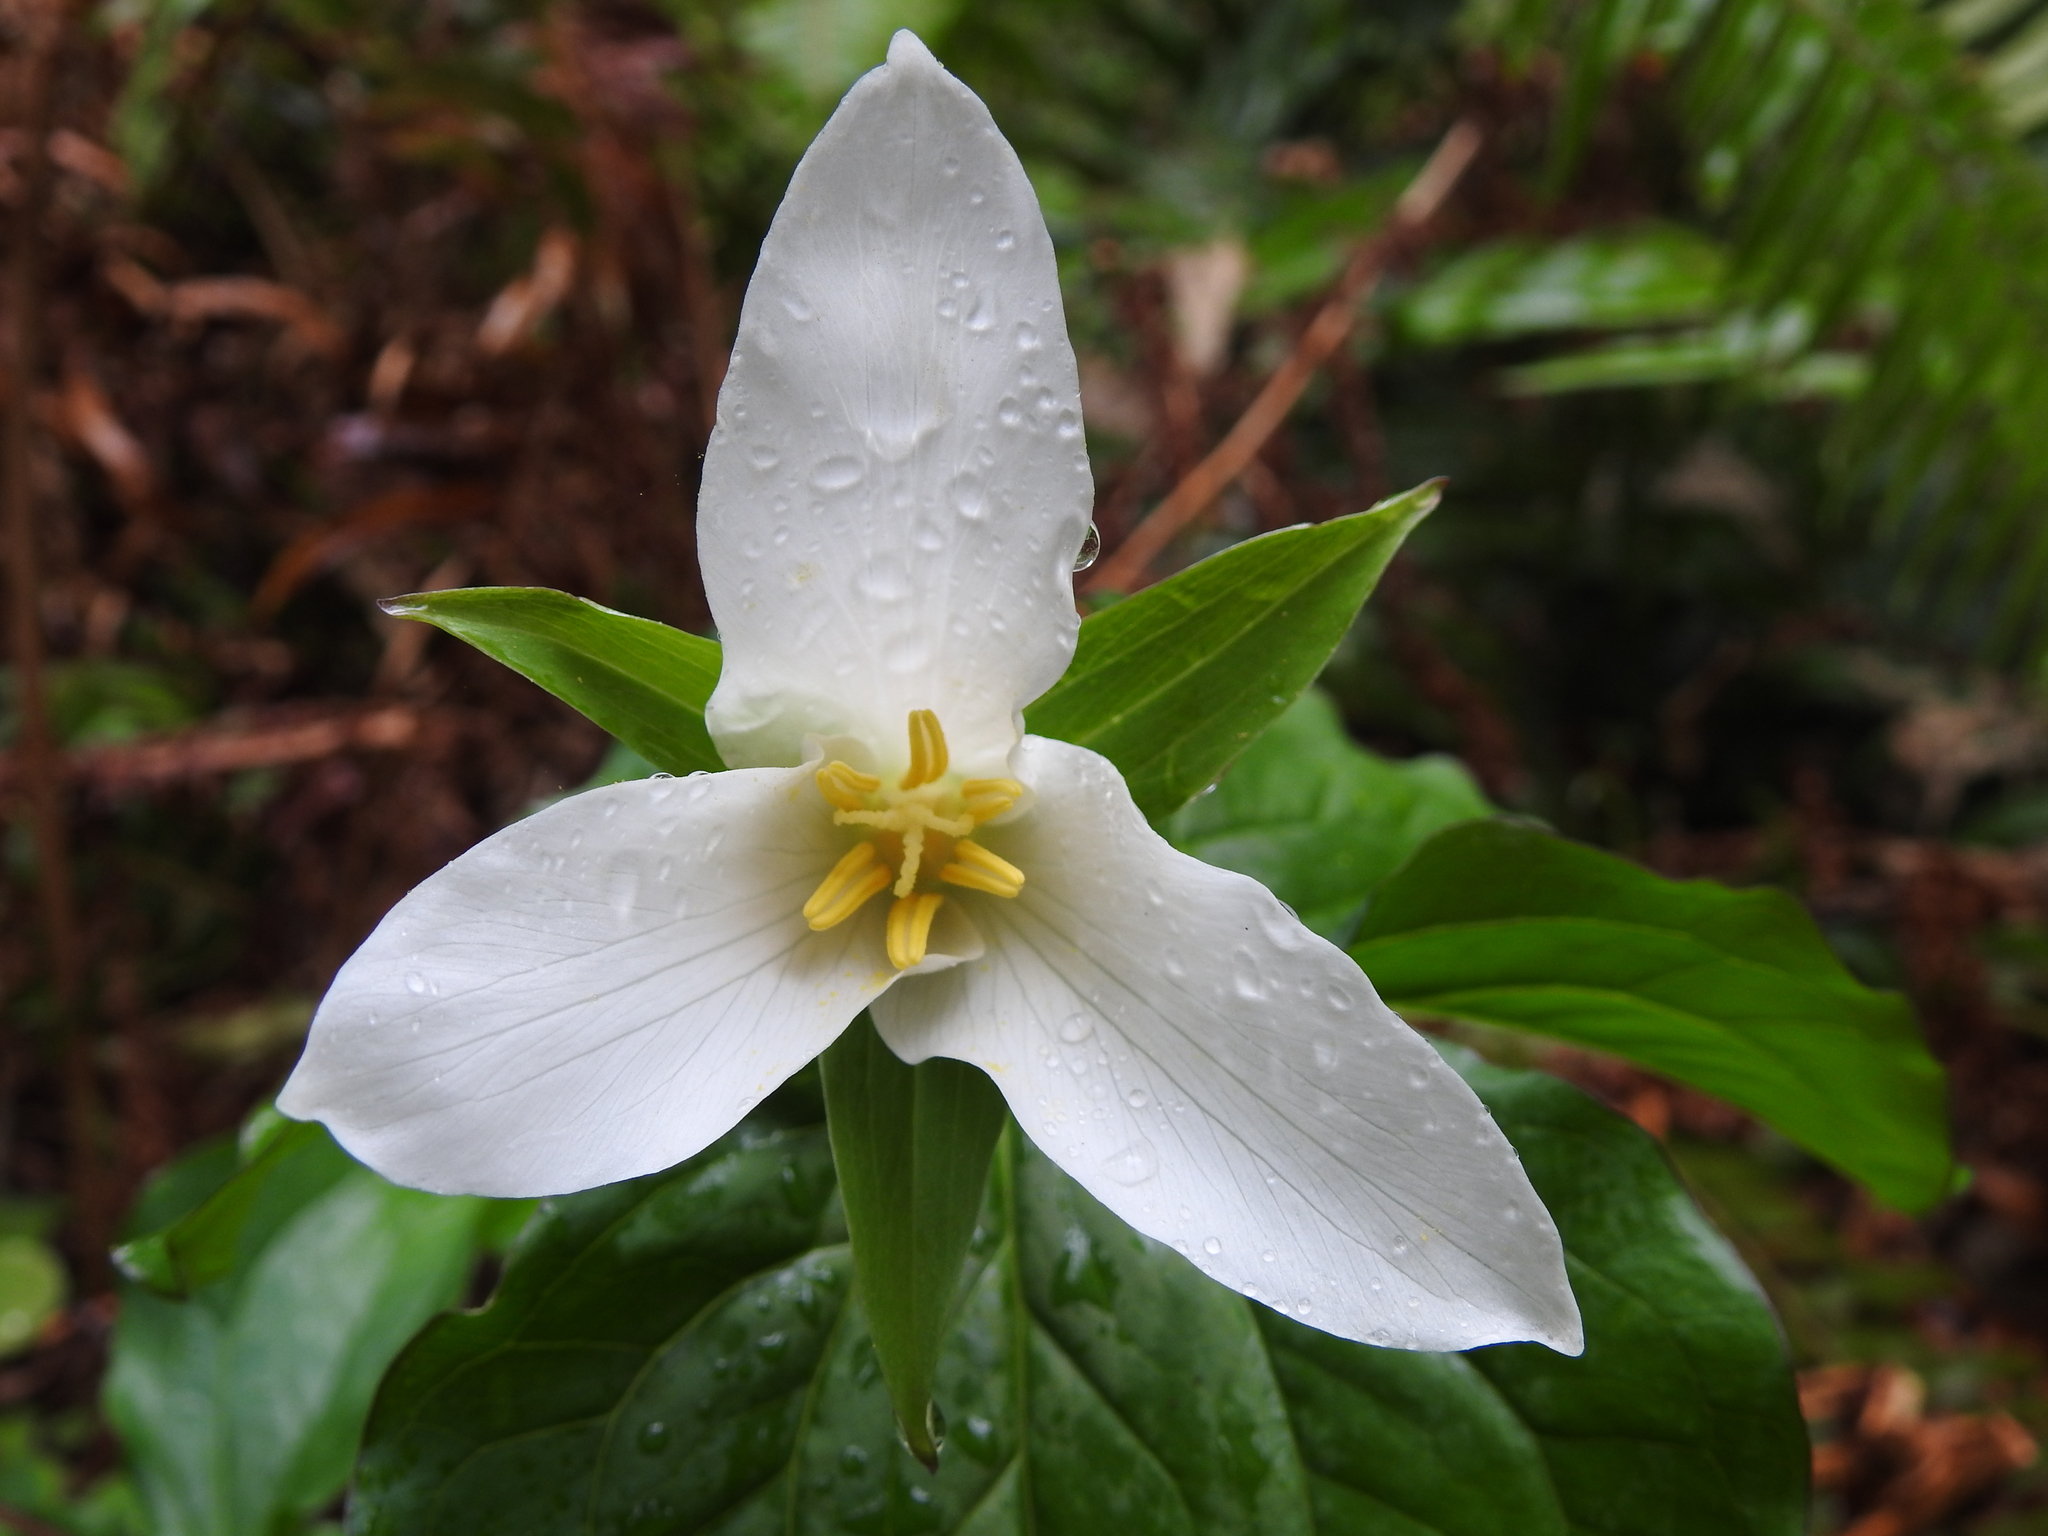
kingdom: Plantae
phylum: Tracheophyta
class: Liliopsida
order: Liliales
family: Melanthiaceae
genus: Trillium
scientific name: Trillium ovatum
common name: Pacific trillium
